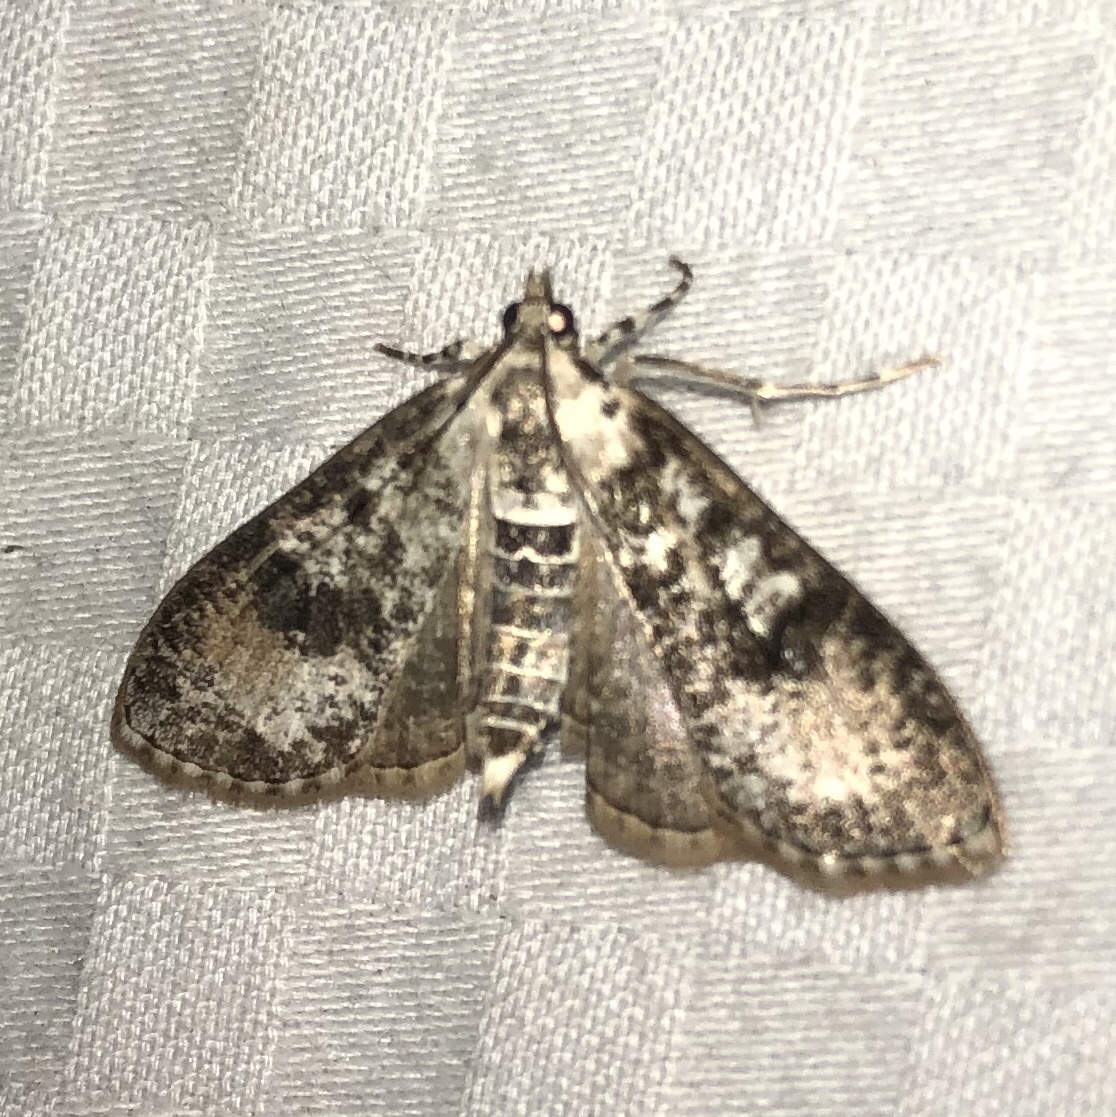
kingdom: Animalia
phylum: Arthropoda
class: Insecta
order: Lepidoptera
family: Crambidae
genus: Palpita
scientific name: Palpita magniferalis
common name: Splendid palpita moth
